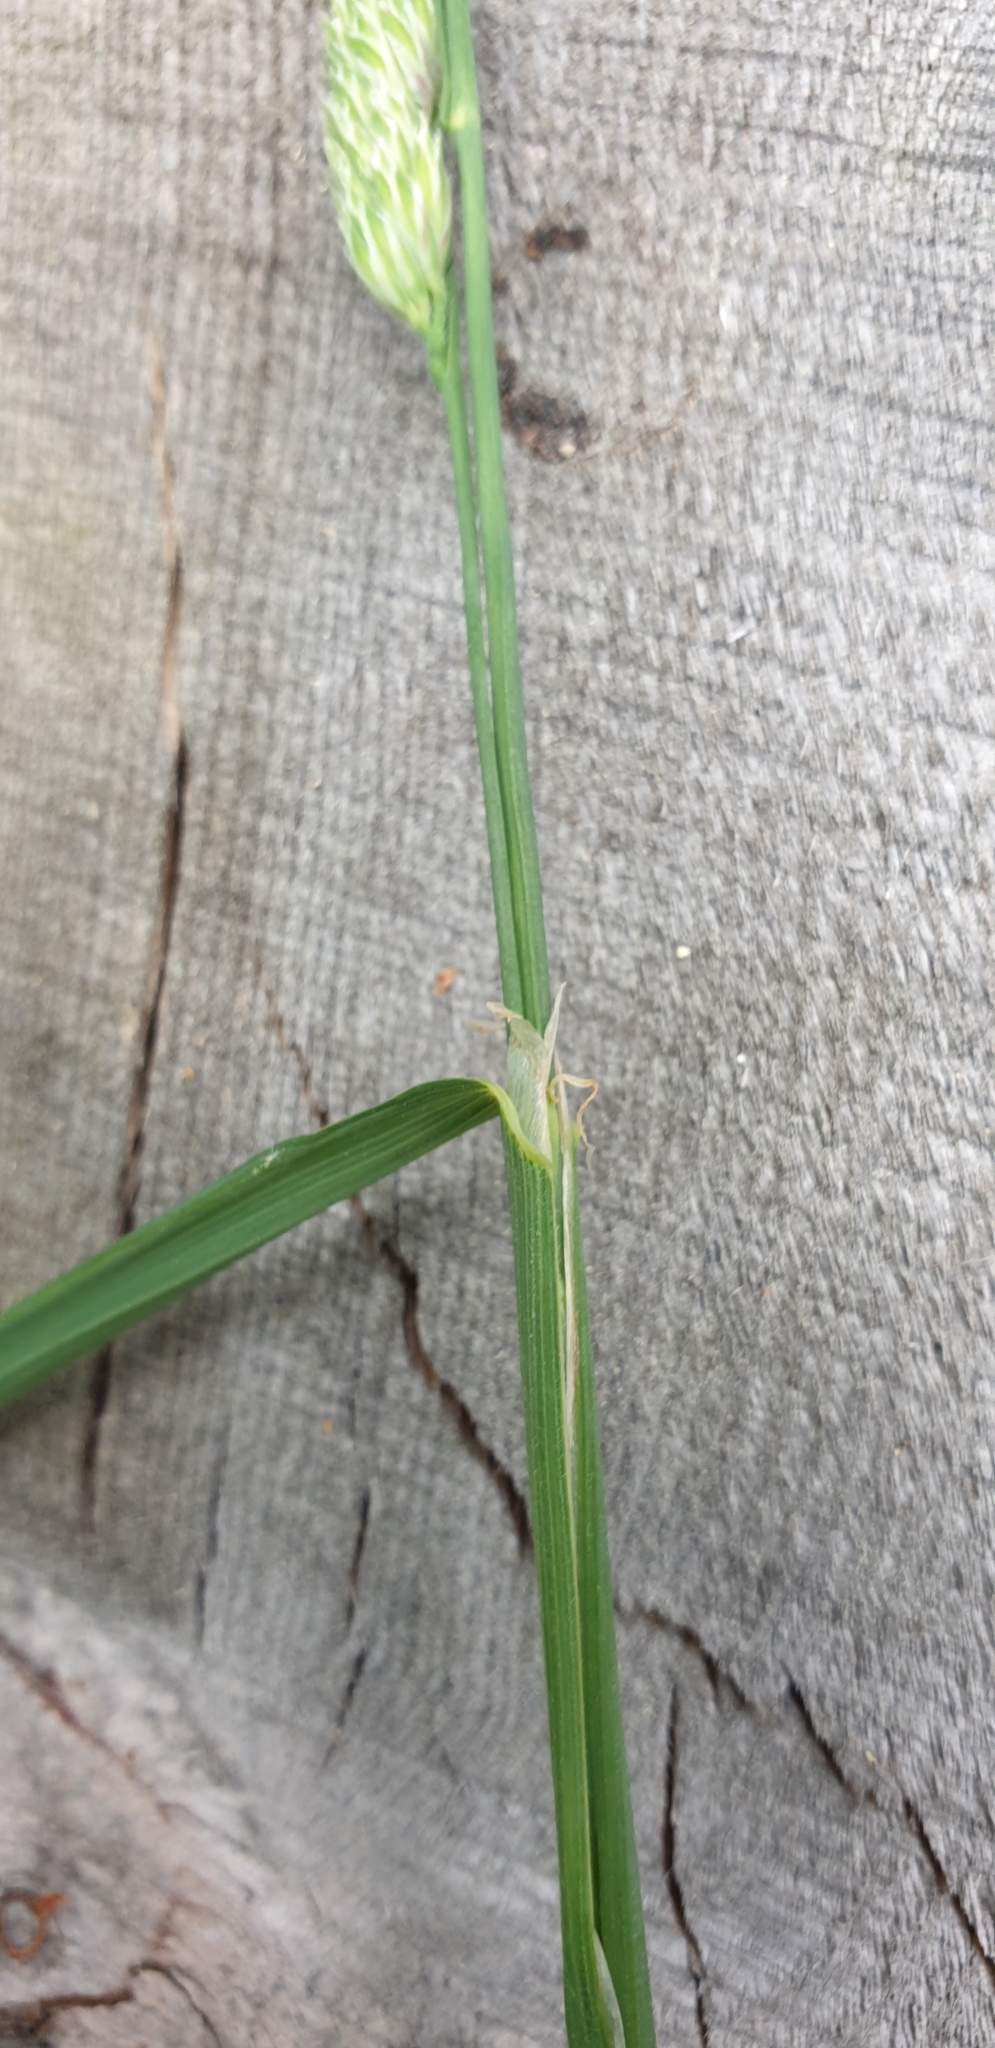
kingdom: Plantae
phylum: Tracheophyta
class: Liliopsida
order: Poales
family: Poaceae
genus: Dactylis
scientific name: Dactylis glomerata
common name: Orchardgrass
